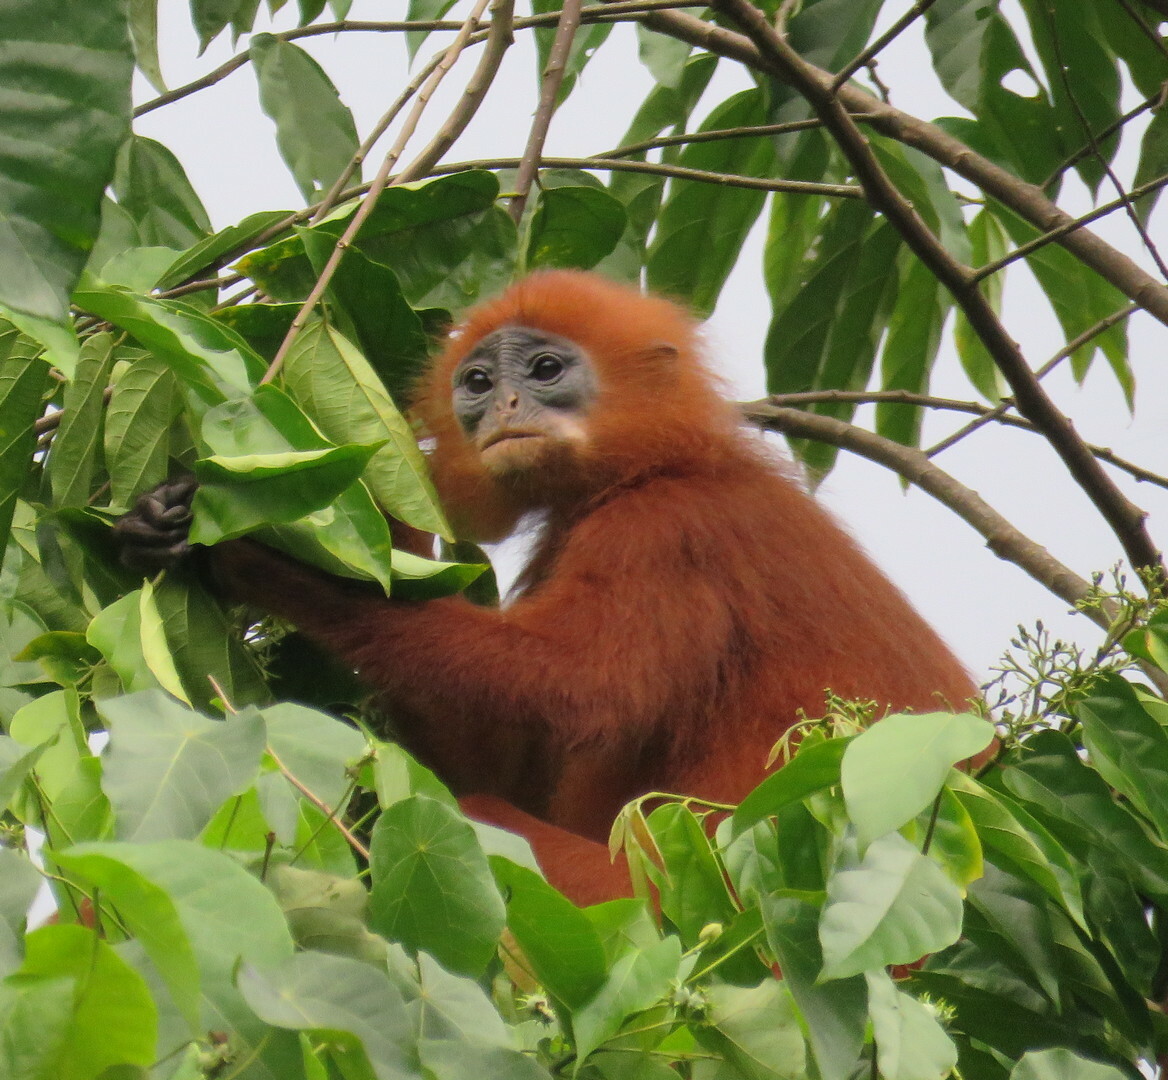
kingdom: Animalia
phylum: Chordata
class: Mammalia
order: Primates
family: Cercopithecidae
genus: Presbytis
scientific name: Presbytis rubicunda
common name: Maroon leaf monkey
